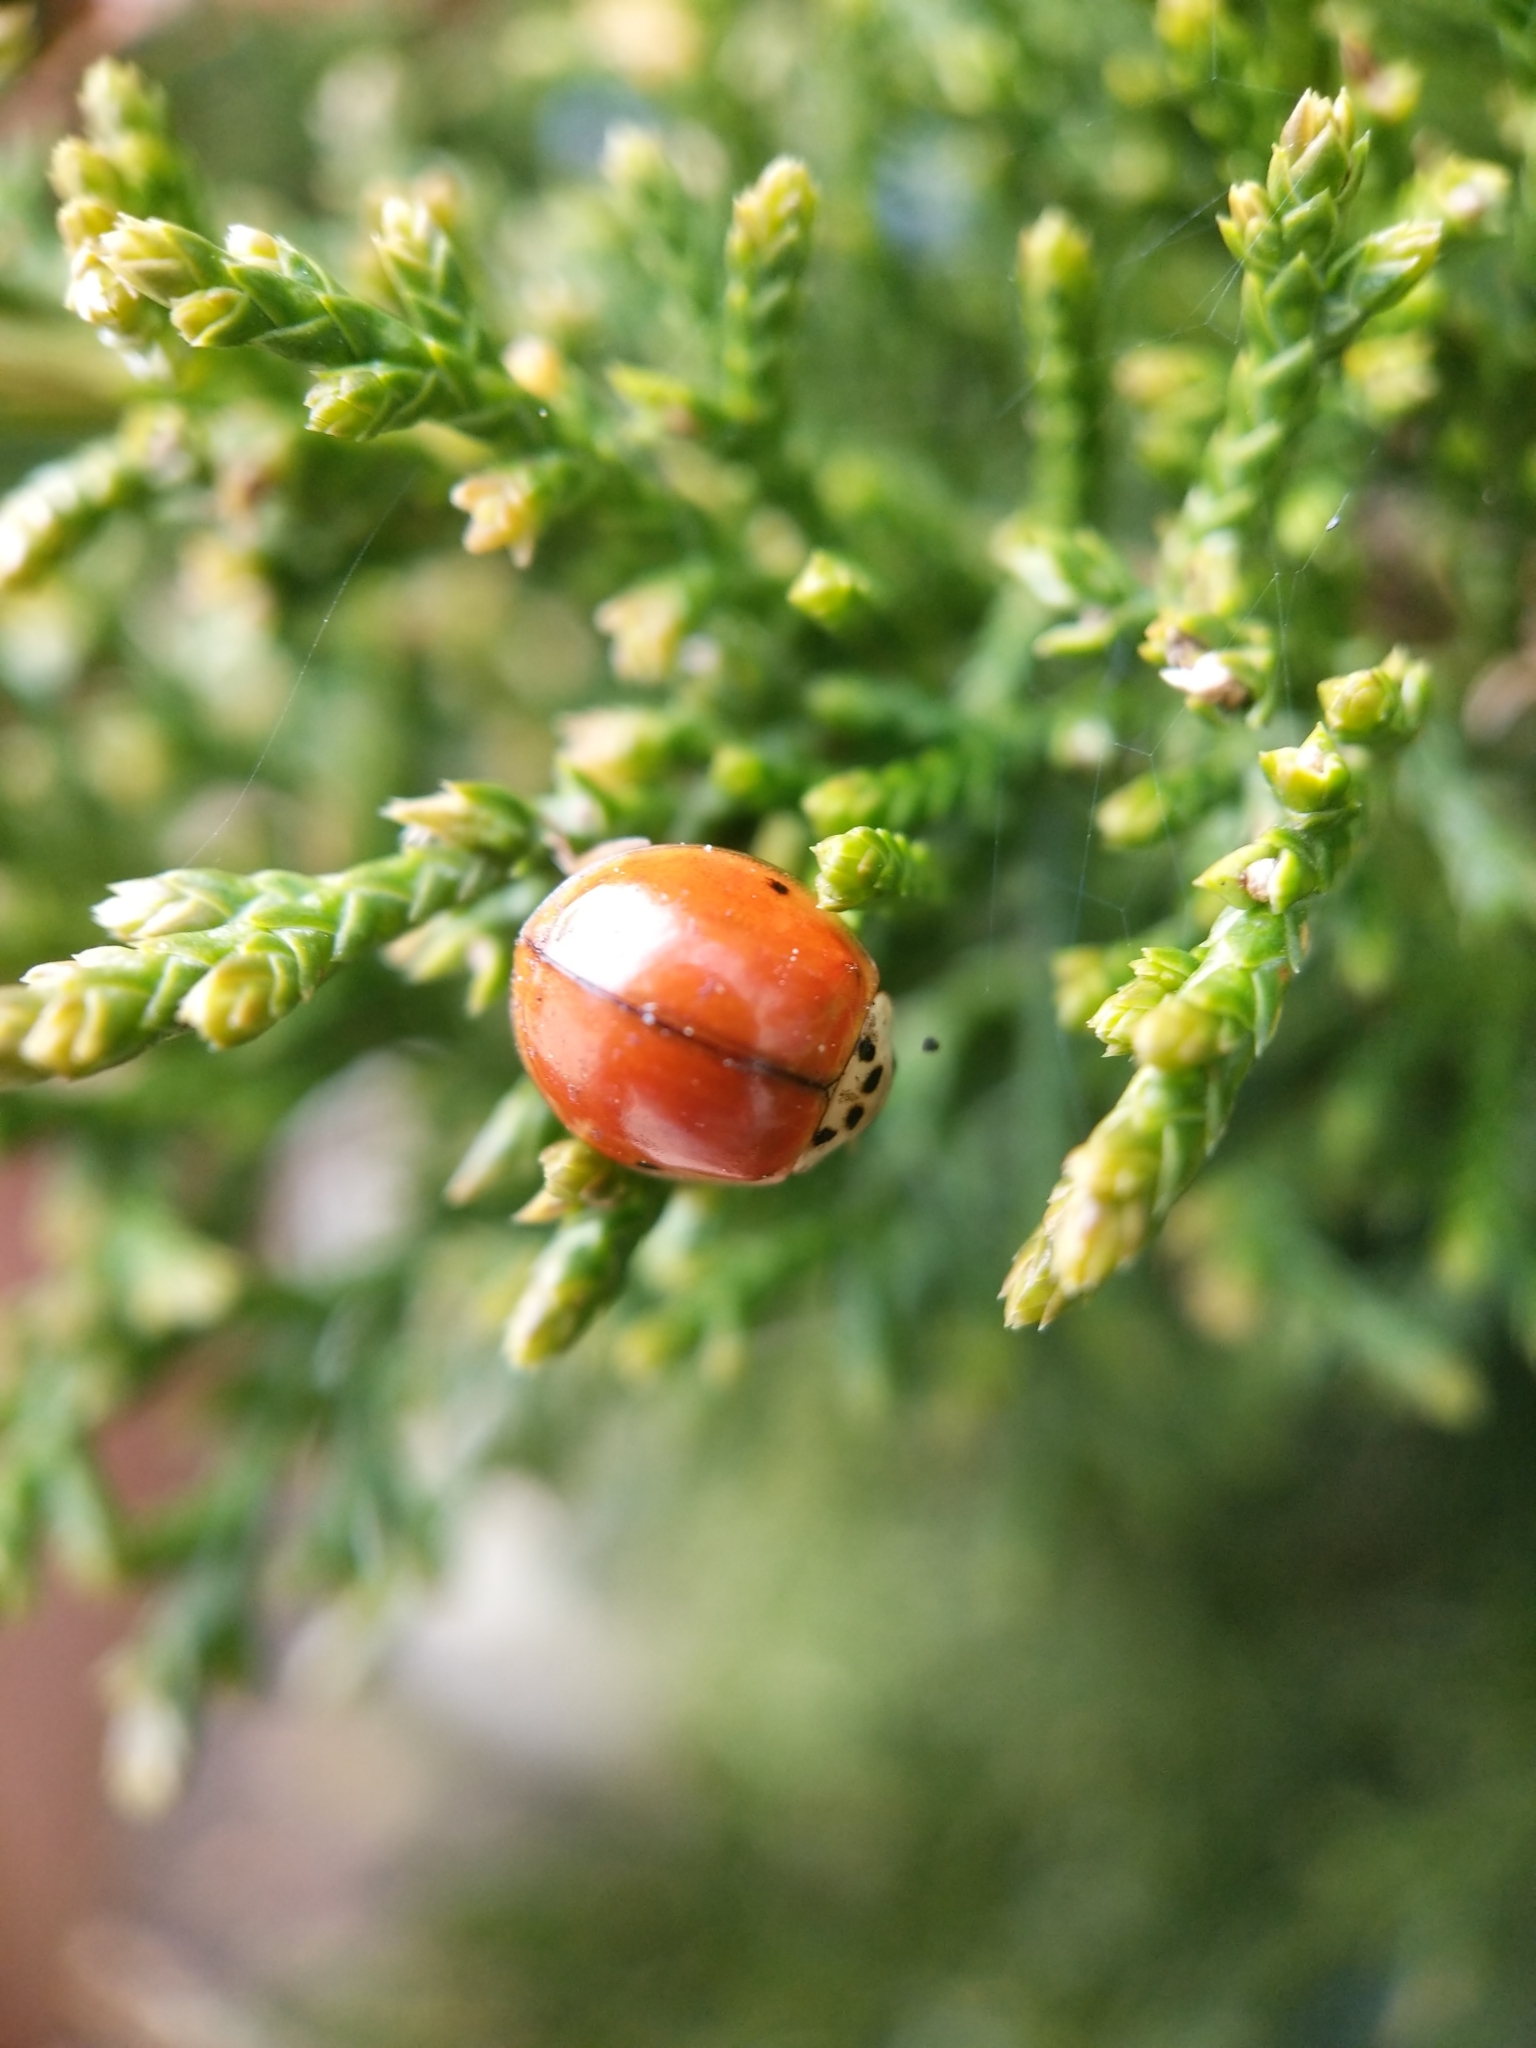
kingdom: Animalia
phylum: Arthropoda
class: Insecta
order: Coleoptera
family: Coccinellidae
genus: Harmonia
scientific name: Harmonia axyridis
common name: Harlequin ladybird
